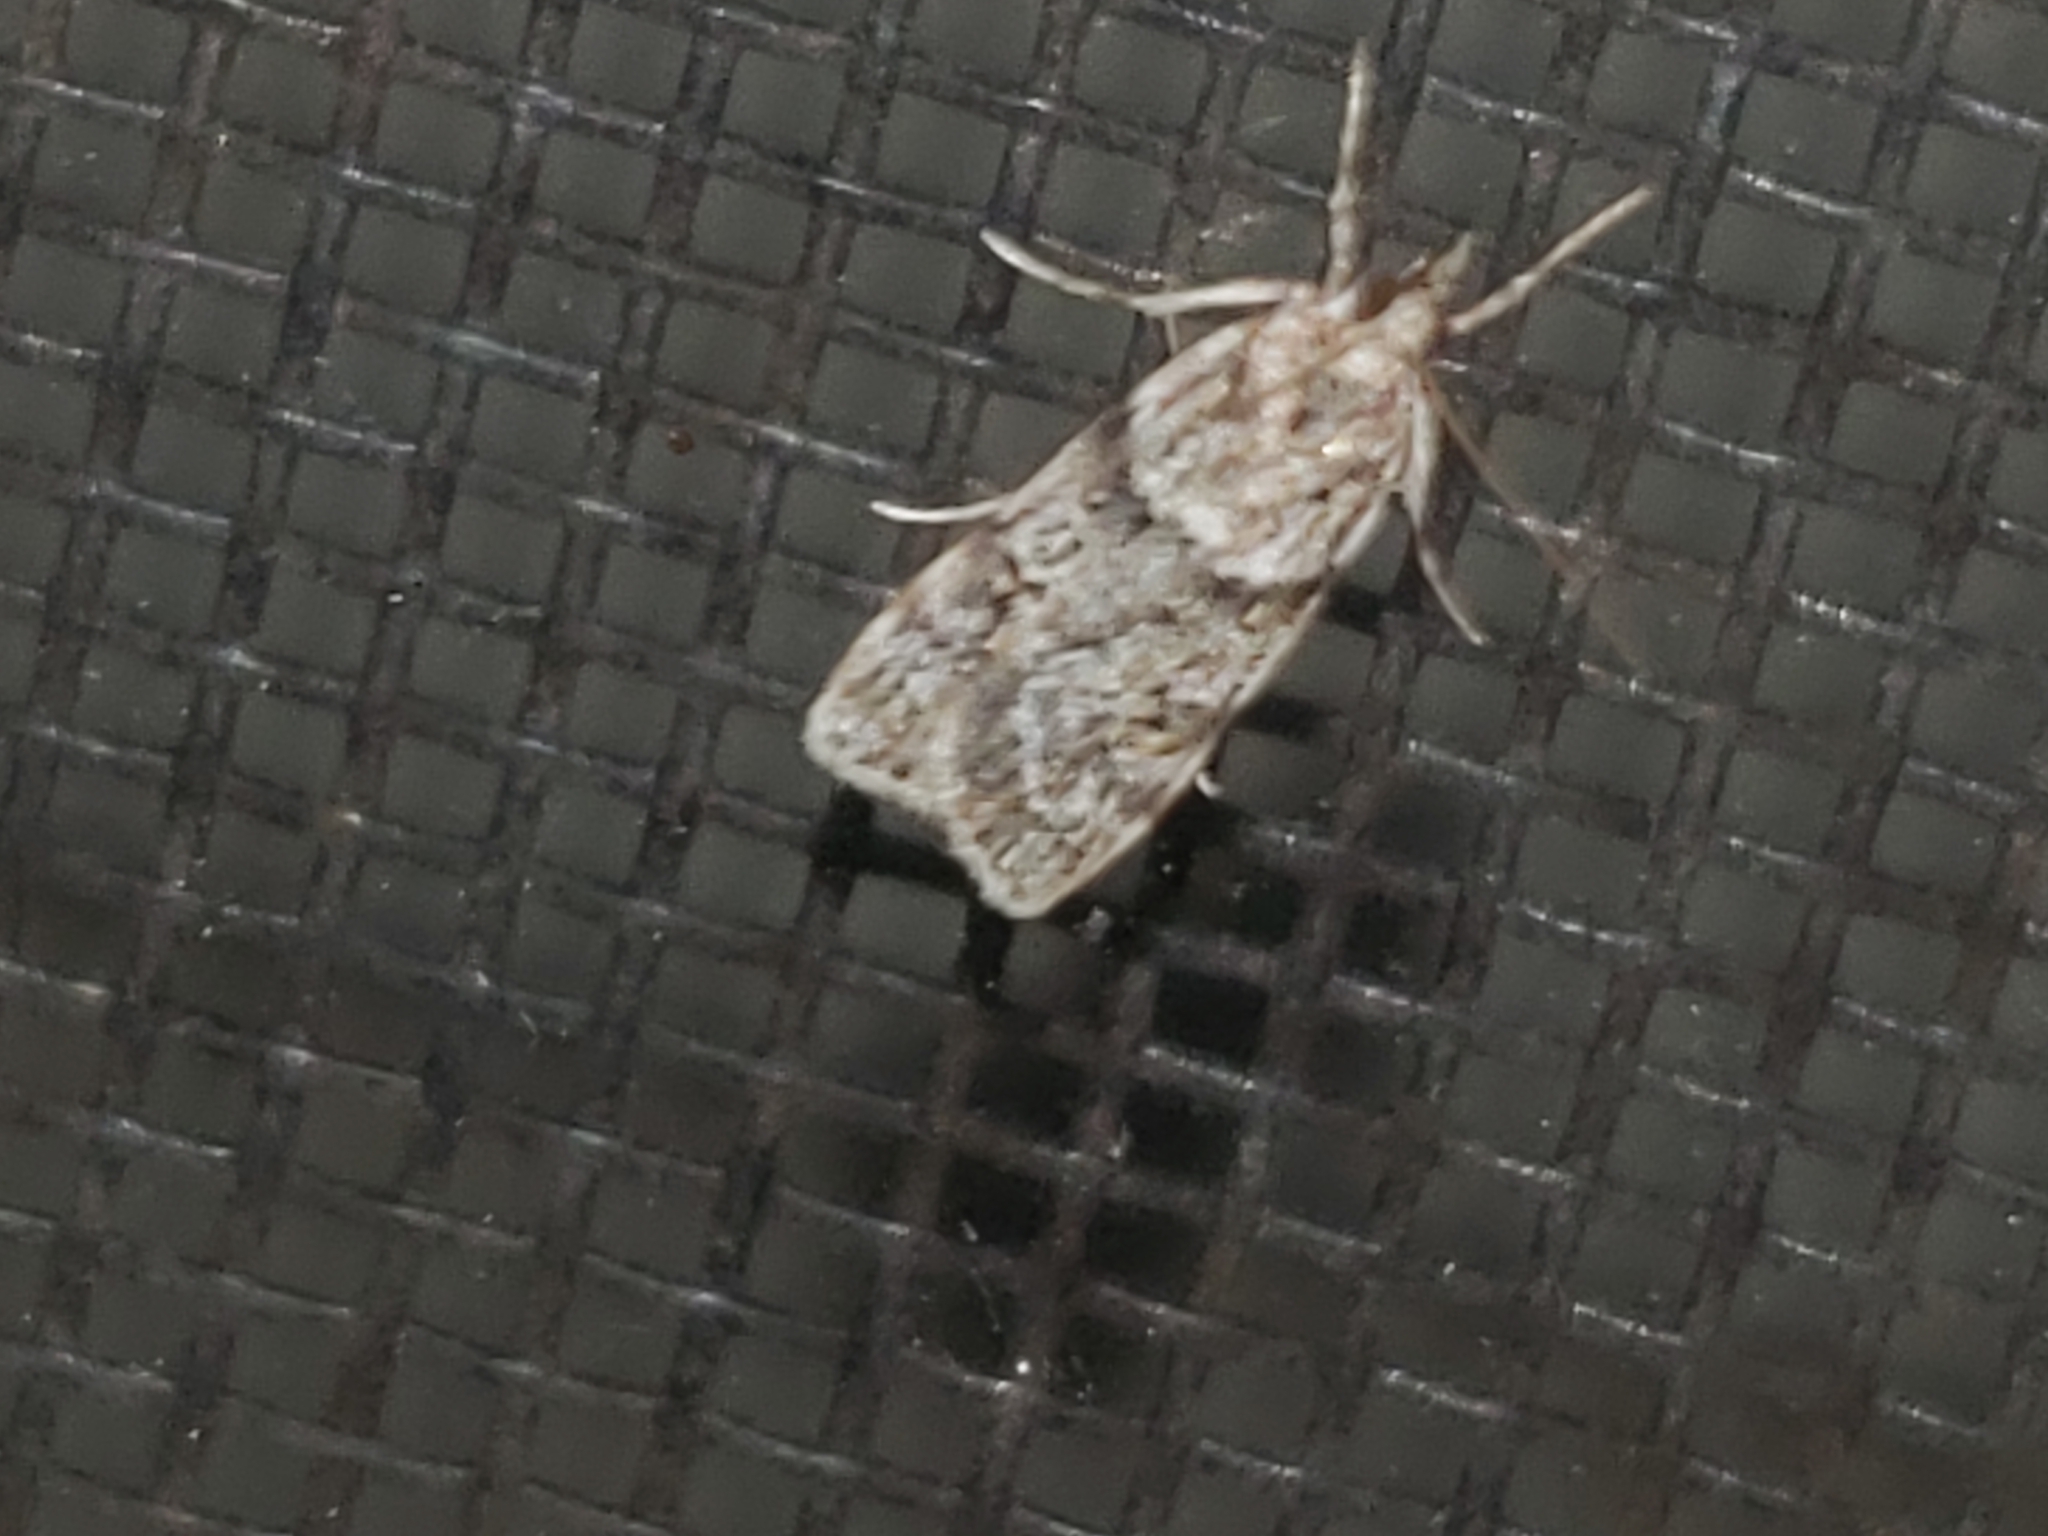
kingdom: Animalia
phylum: Arthropoda
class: Insecta
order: Lepidoptera
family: Crambidae
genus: Scoparia
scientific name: Scoparia biplagialis
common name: Double-striped scoparia moth
